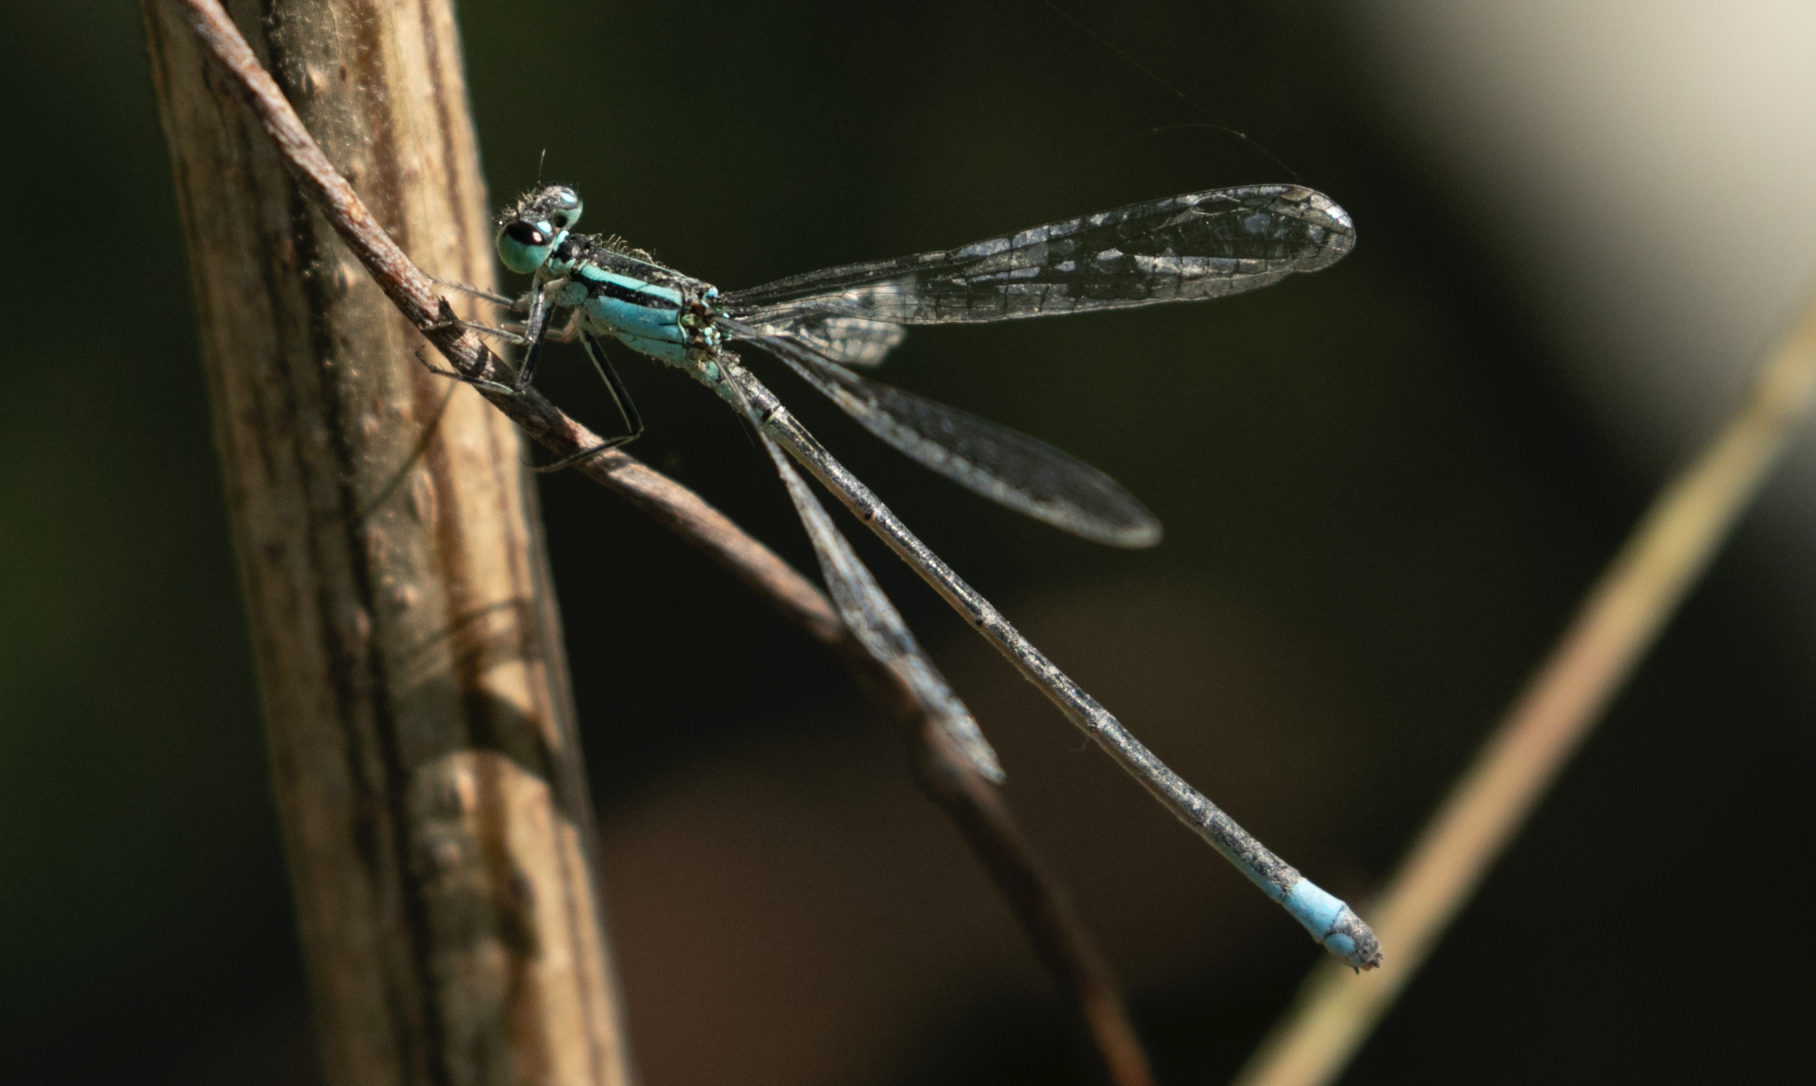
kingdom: Animalia
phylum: Arthropoda
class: Insecta
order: Odonata
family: Coenagrionidae
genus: Ischnura
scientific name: Ischnura elegans
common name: Blue-tailed damselfly
